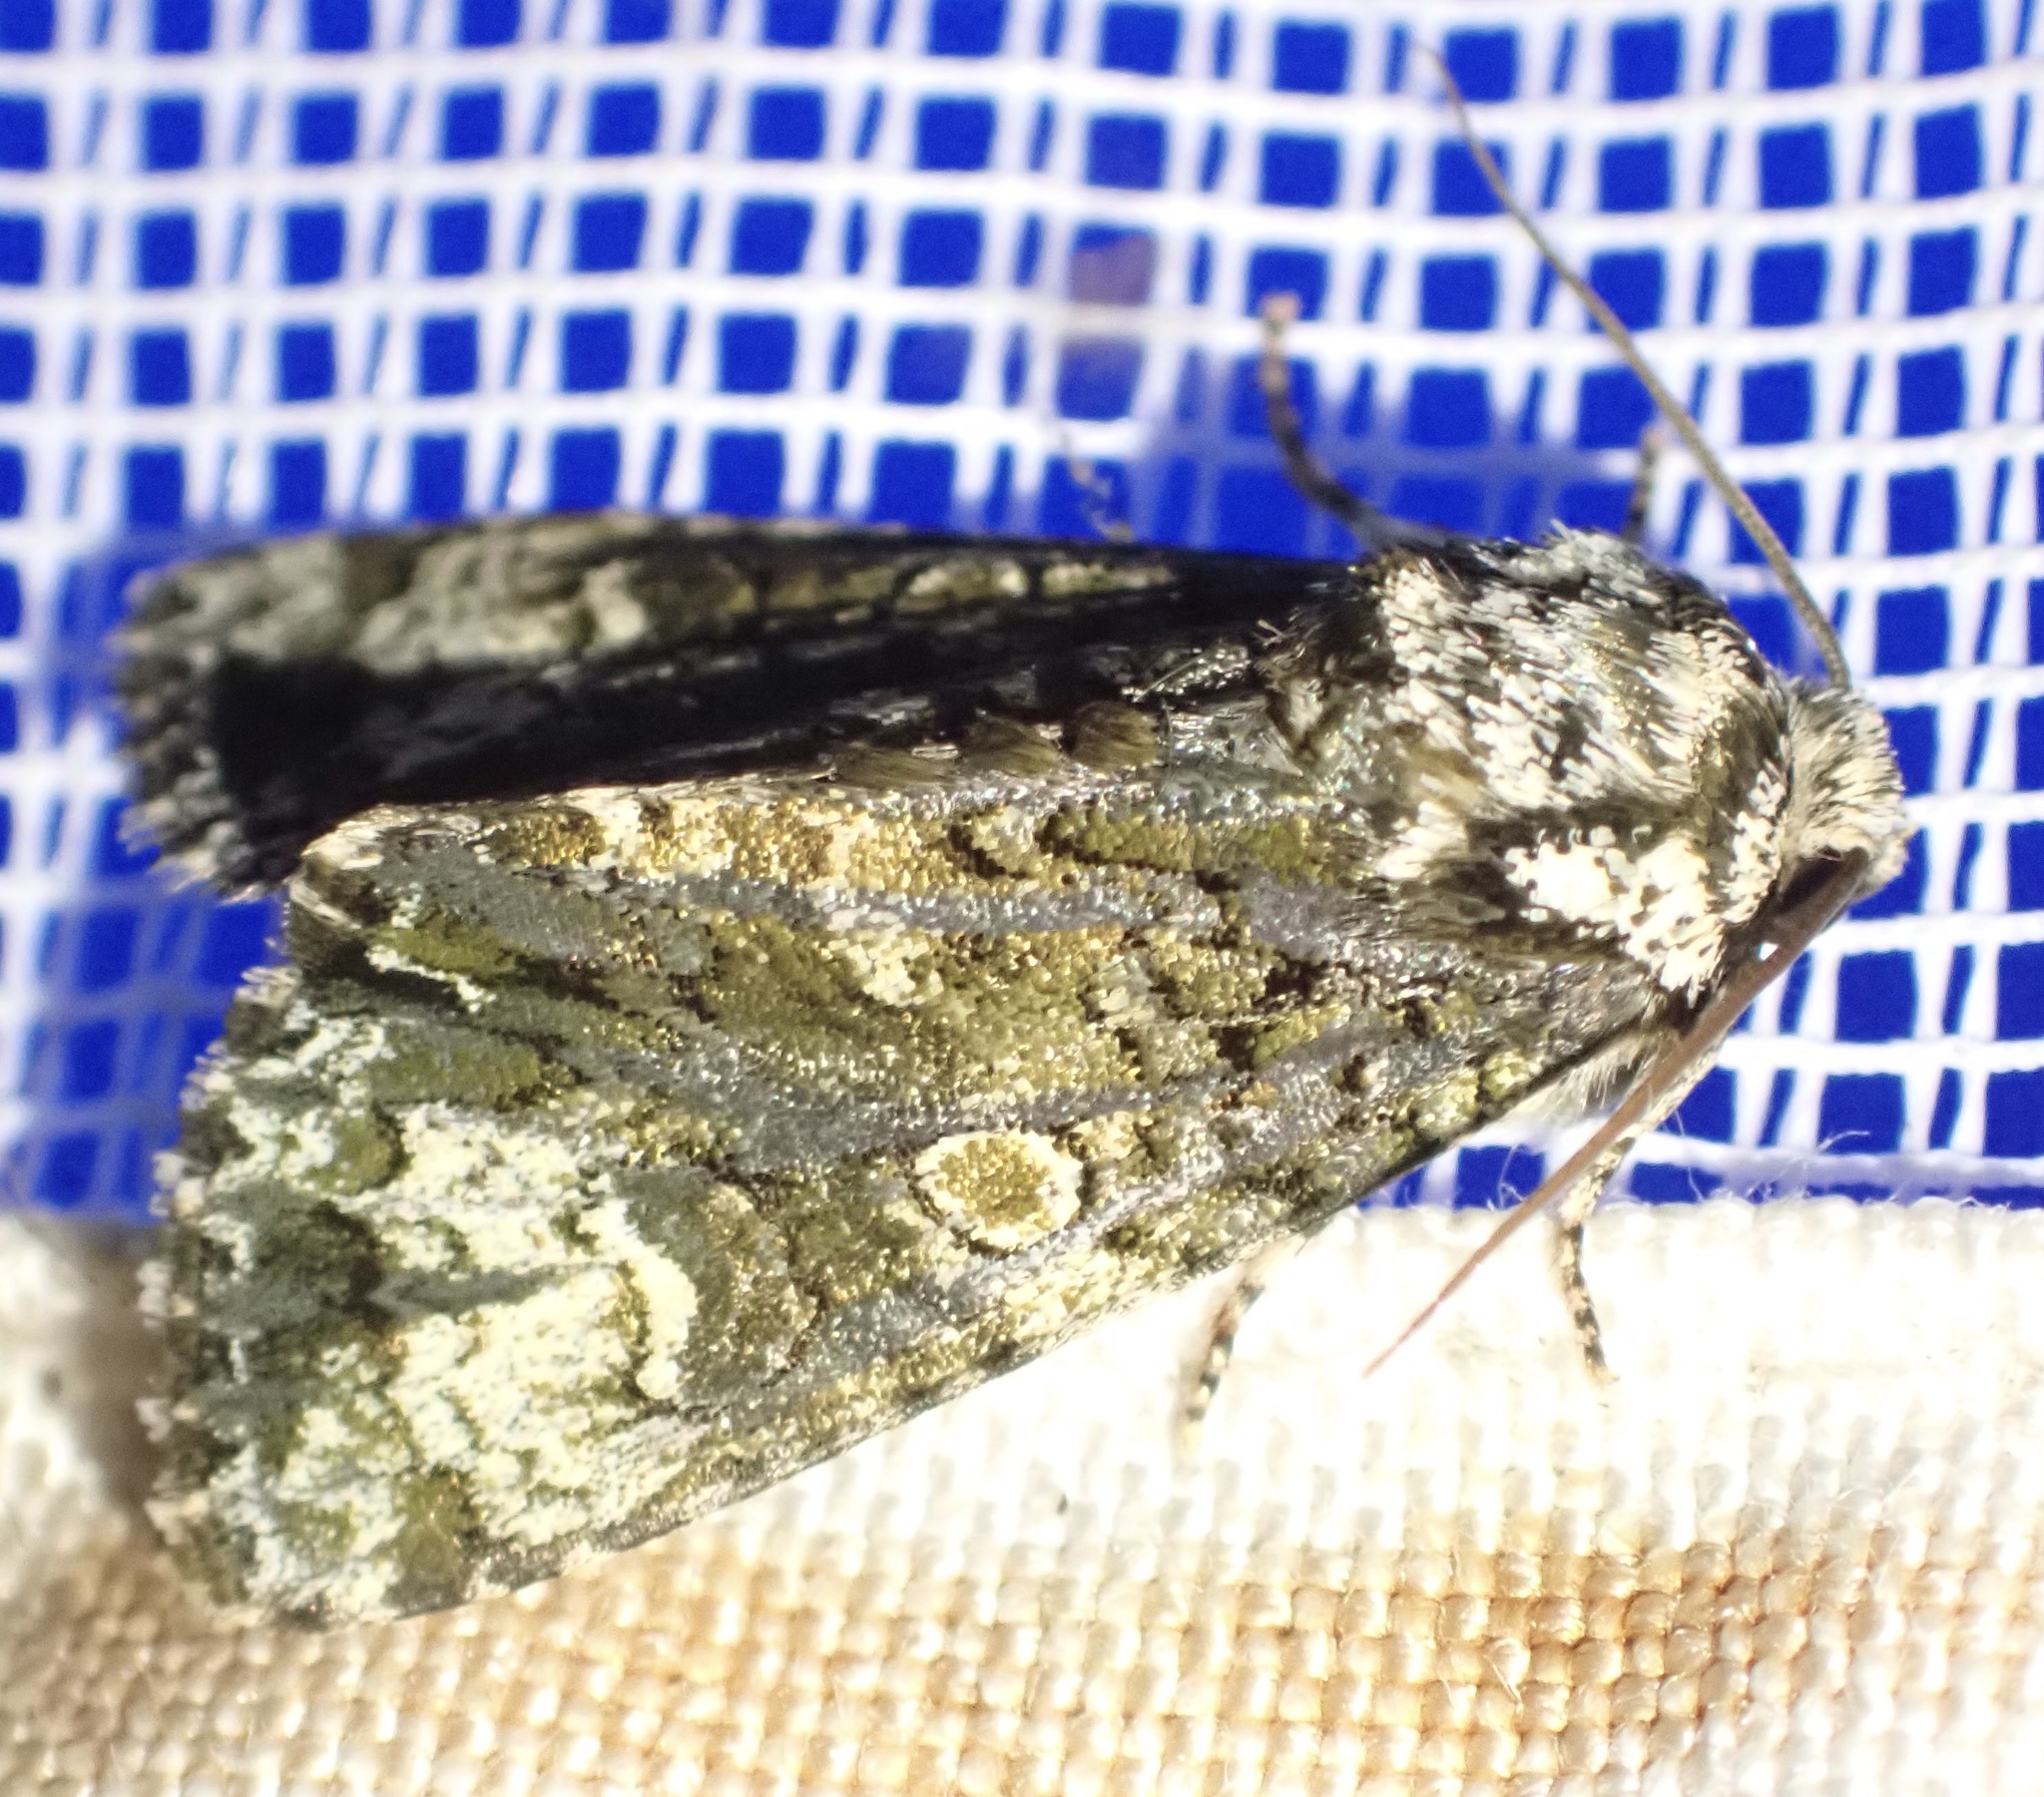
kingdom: Animalia
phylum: Arthropoda
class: Insecta
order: Lepidoptera
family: Noctuidae
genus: Craniophora
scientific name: Craniophora ligustri
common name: Coronet
